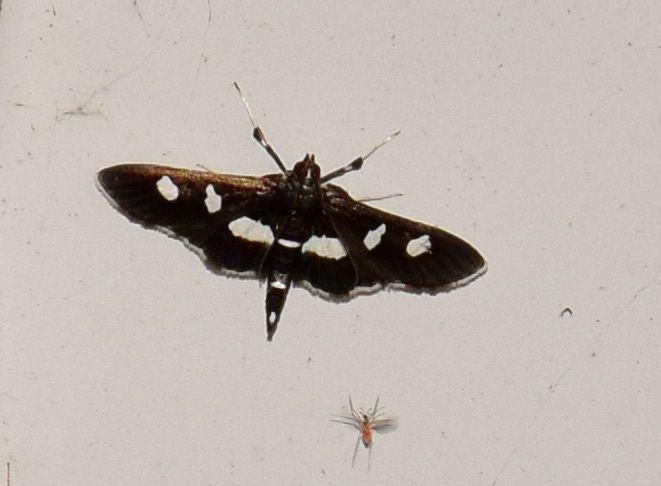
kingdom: Animalia
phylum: Arthropoda
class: Insecta
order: Lepidoptera
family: Crambidae
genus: Desmia
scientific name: Desmia
